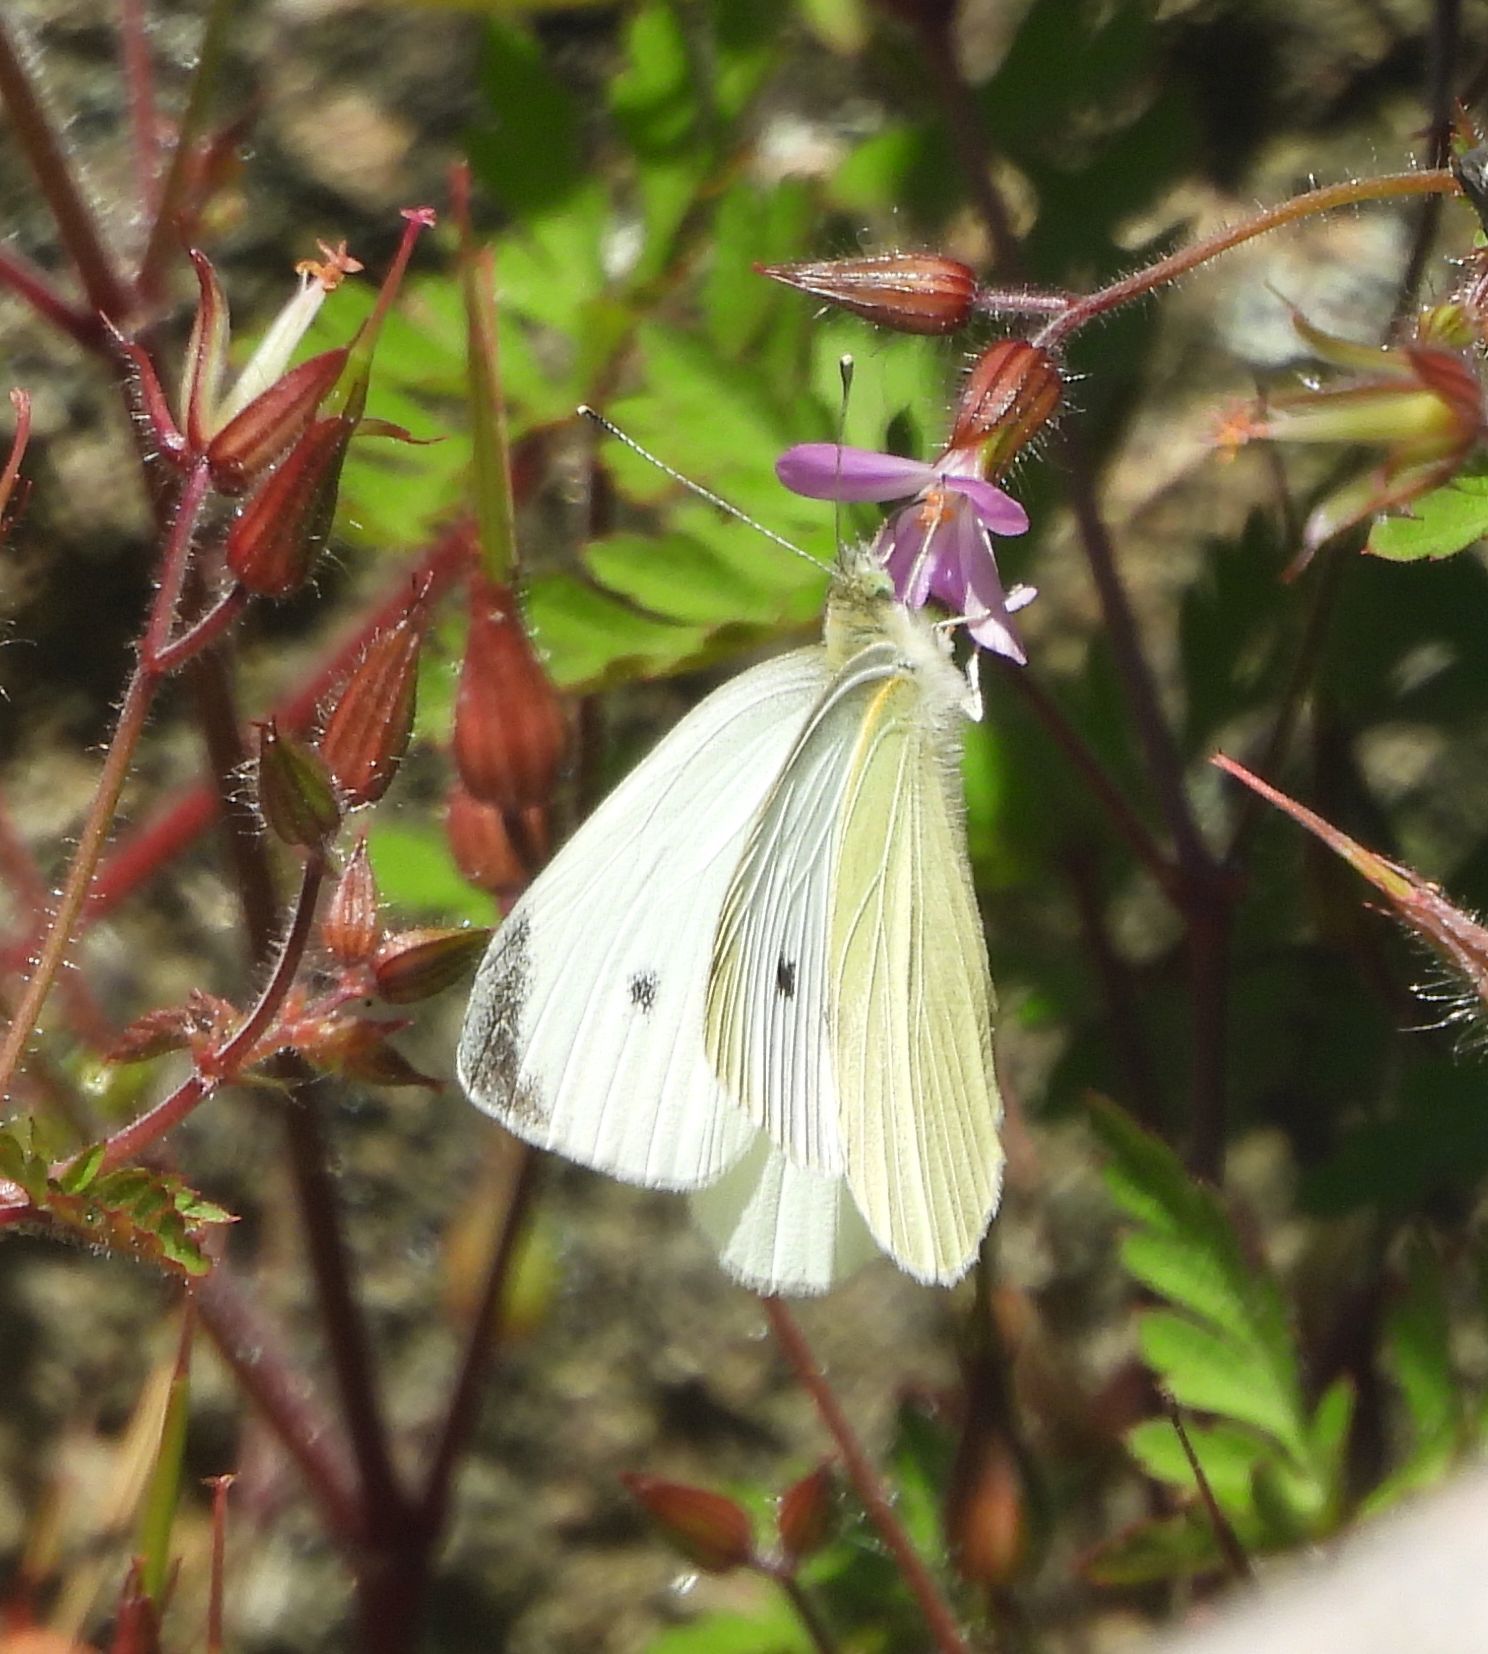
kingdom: Animalia
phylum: Arthropoda
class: Insecta
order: Lepidoptera
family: Pieridae
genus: Pieris
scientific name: Pieris rapae
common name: Small white
